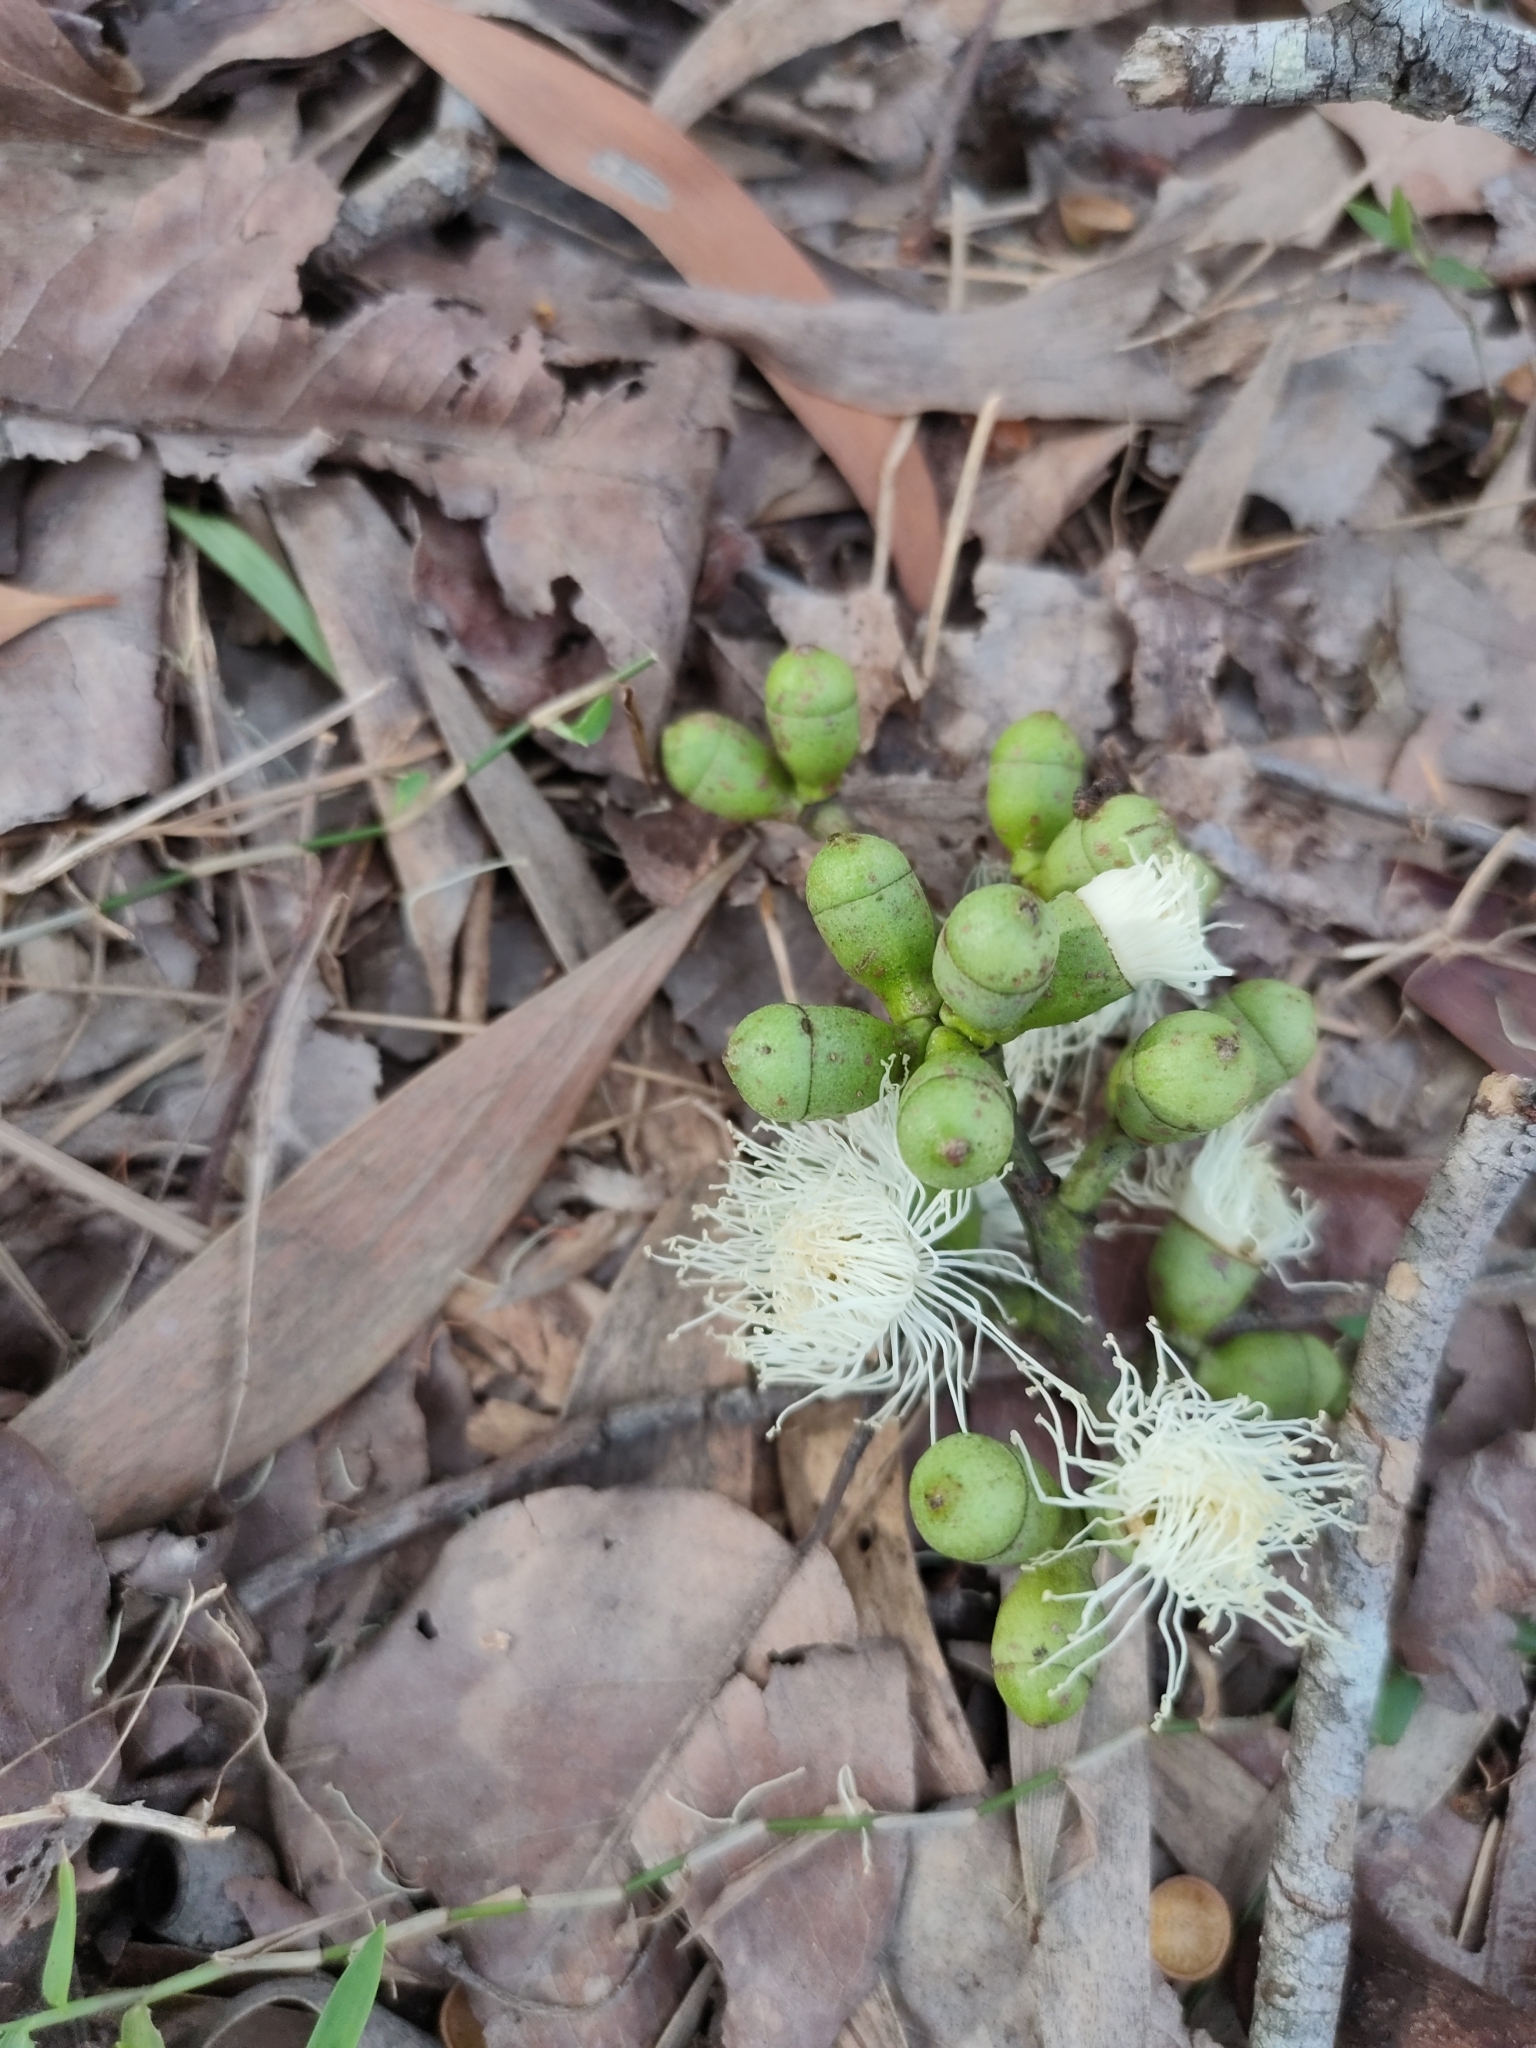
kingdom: Plantae
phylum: Tracheophyta
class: Magnoliopsida
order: Myrtales
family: Myrtaceae
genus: Corymbia
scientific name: Corymbia torelliana
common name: Cadaghi
